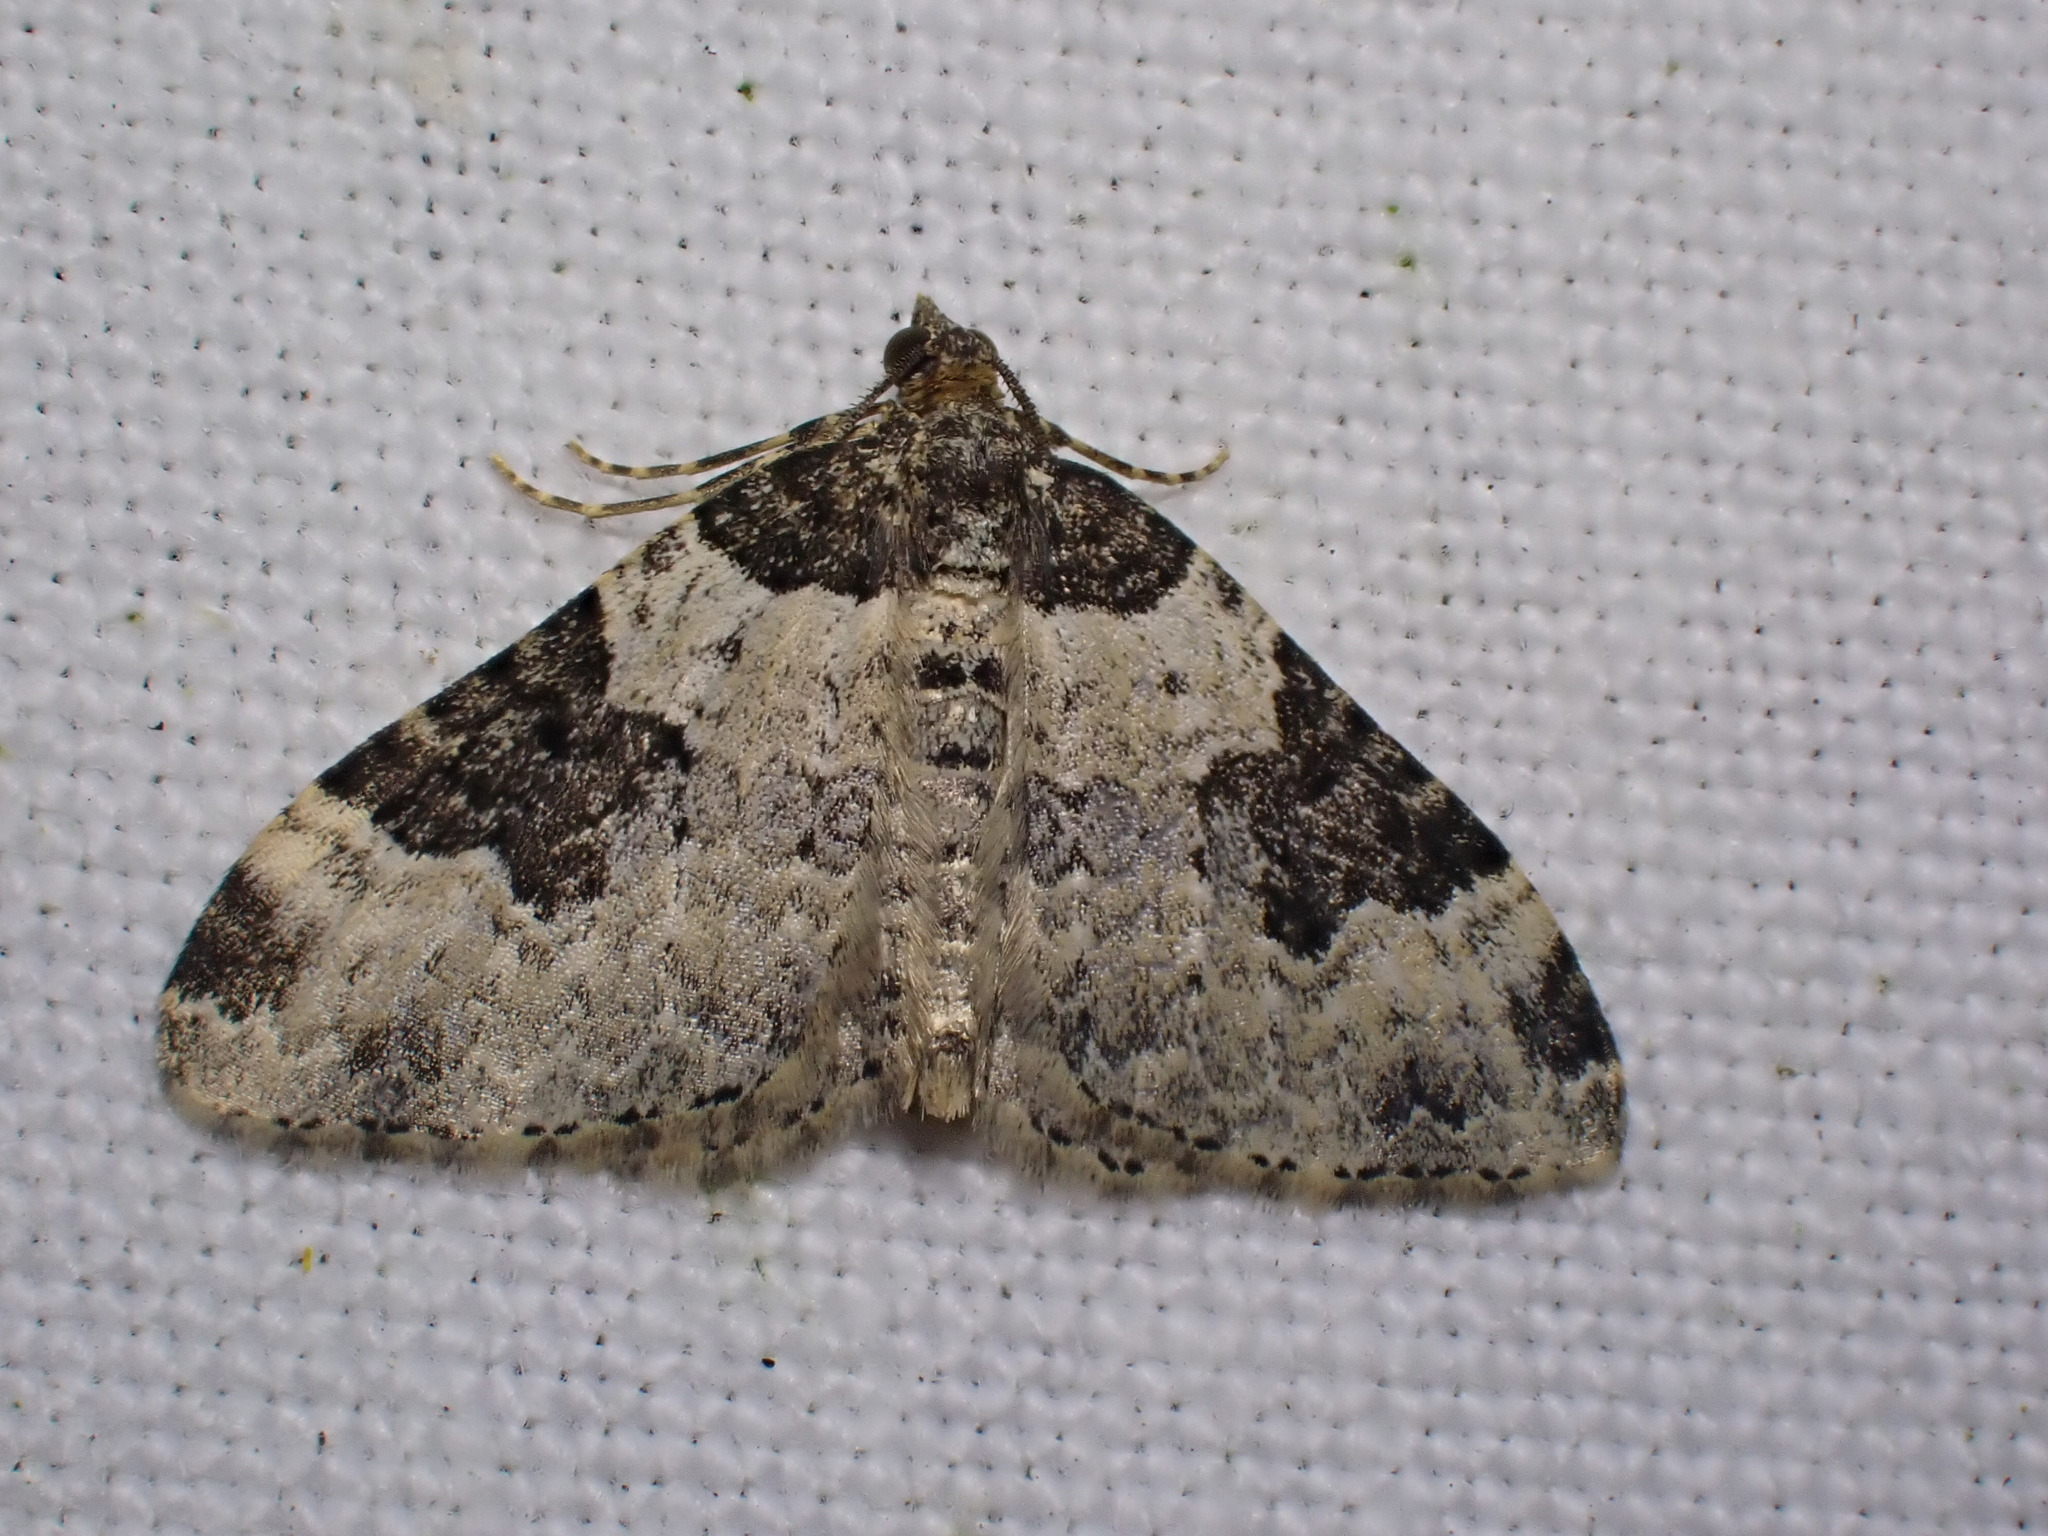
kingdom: Animalia
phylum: Arthropoda
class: Insecta
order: Lepidoptera
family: Geometridae
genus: Xanthorhoe
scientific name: Xanthorhoe fluctuata
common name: Garden carpet
